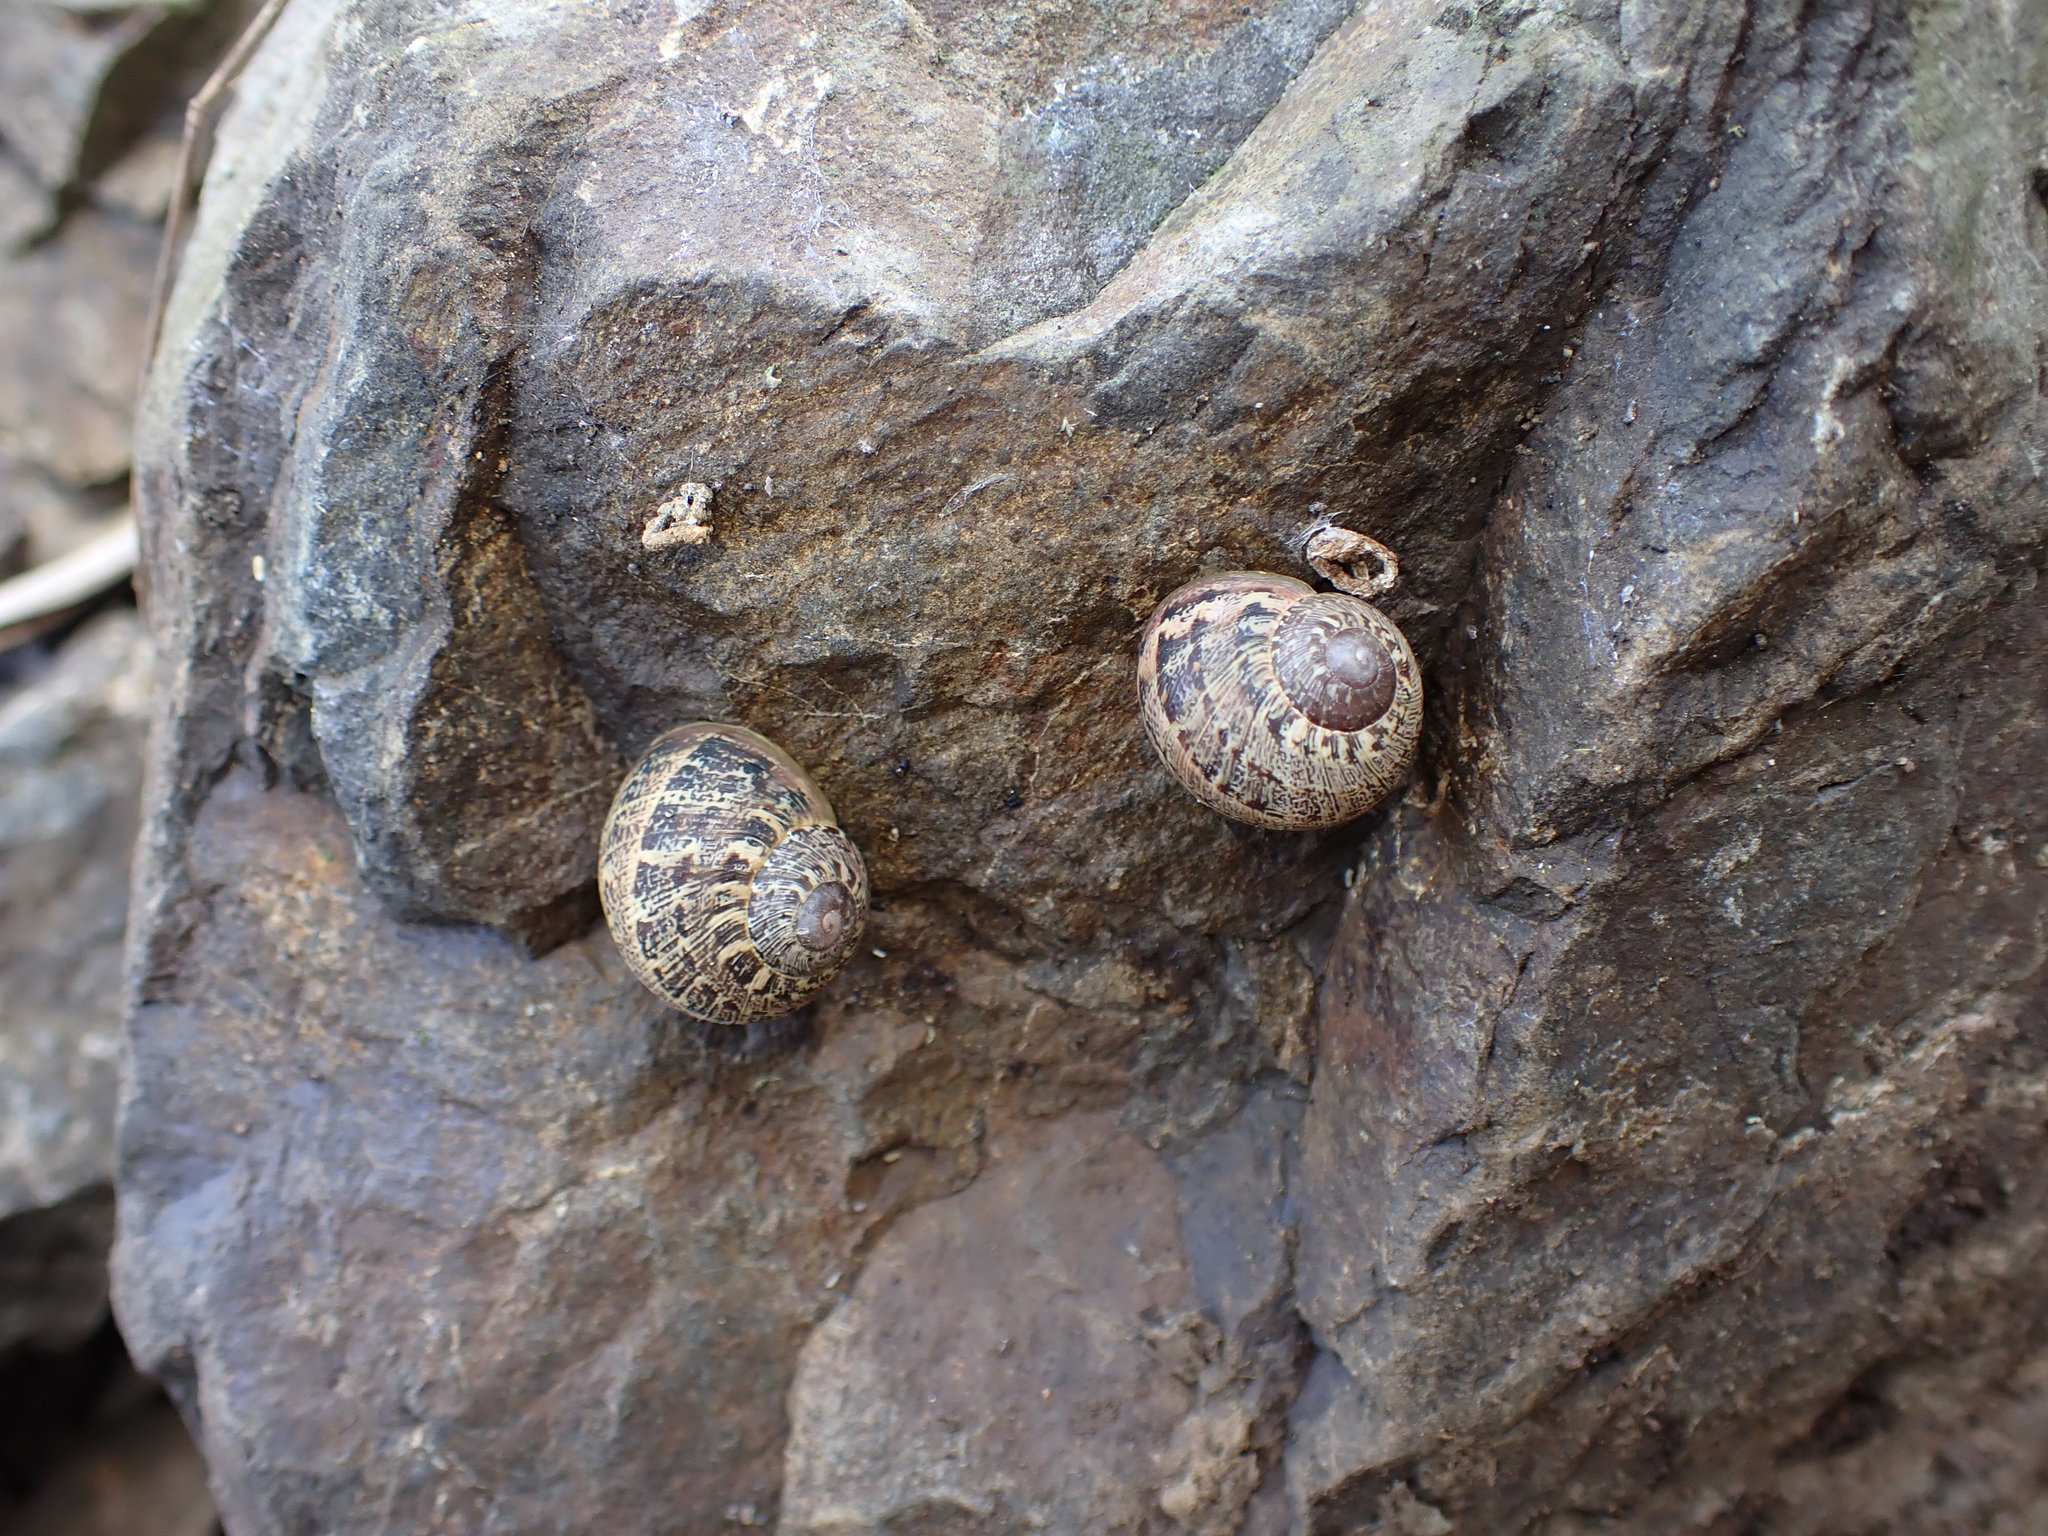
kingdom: Animalia
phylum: Mollusca
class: Gastropoda
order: Stylommatophora
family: Helicidae
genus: Cornu
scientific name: Cornu aspersum
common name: Brown garden snail
